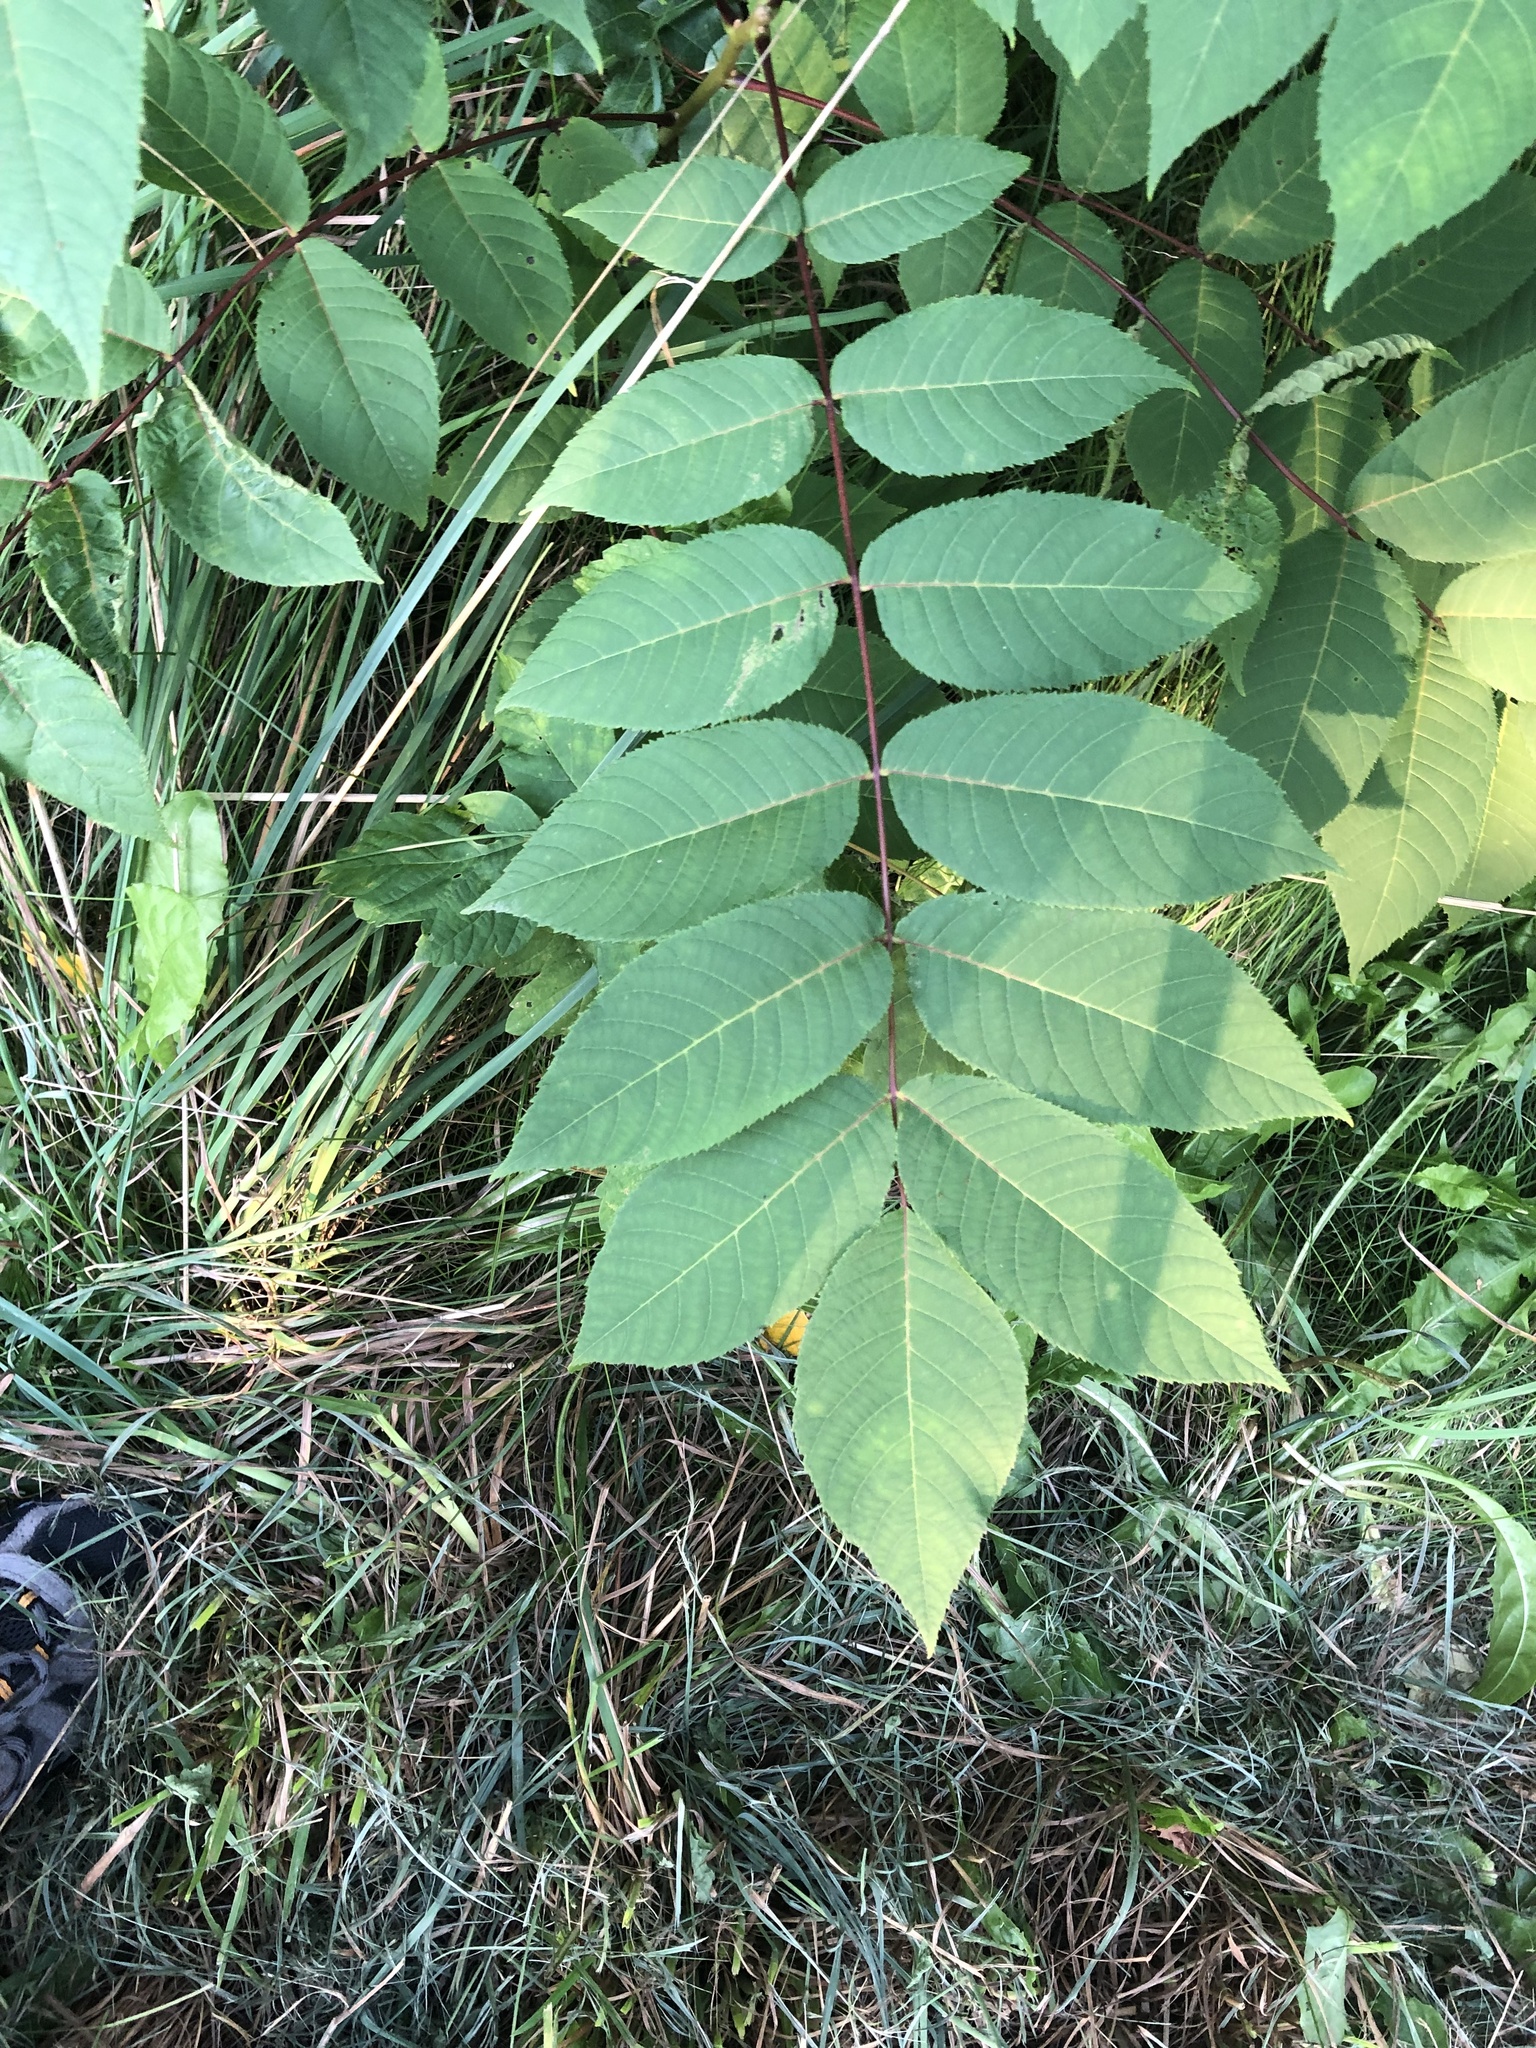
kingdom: Plantae
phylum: Tracheophyta
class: Magnoliopsida
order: Fagales
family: Juglandaceae
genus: Juglans
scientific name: Juglans nigra
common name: Black walnut
